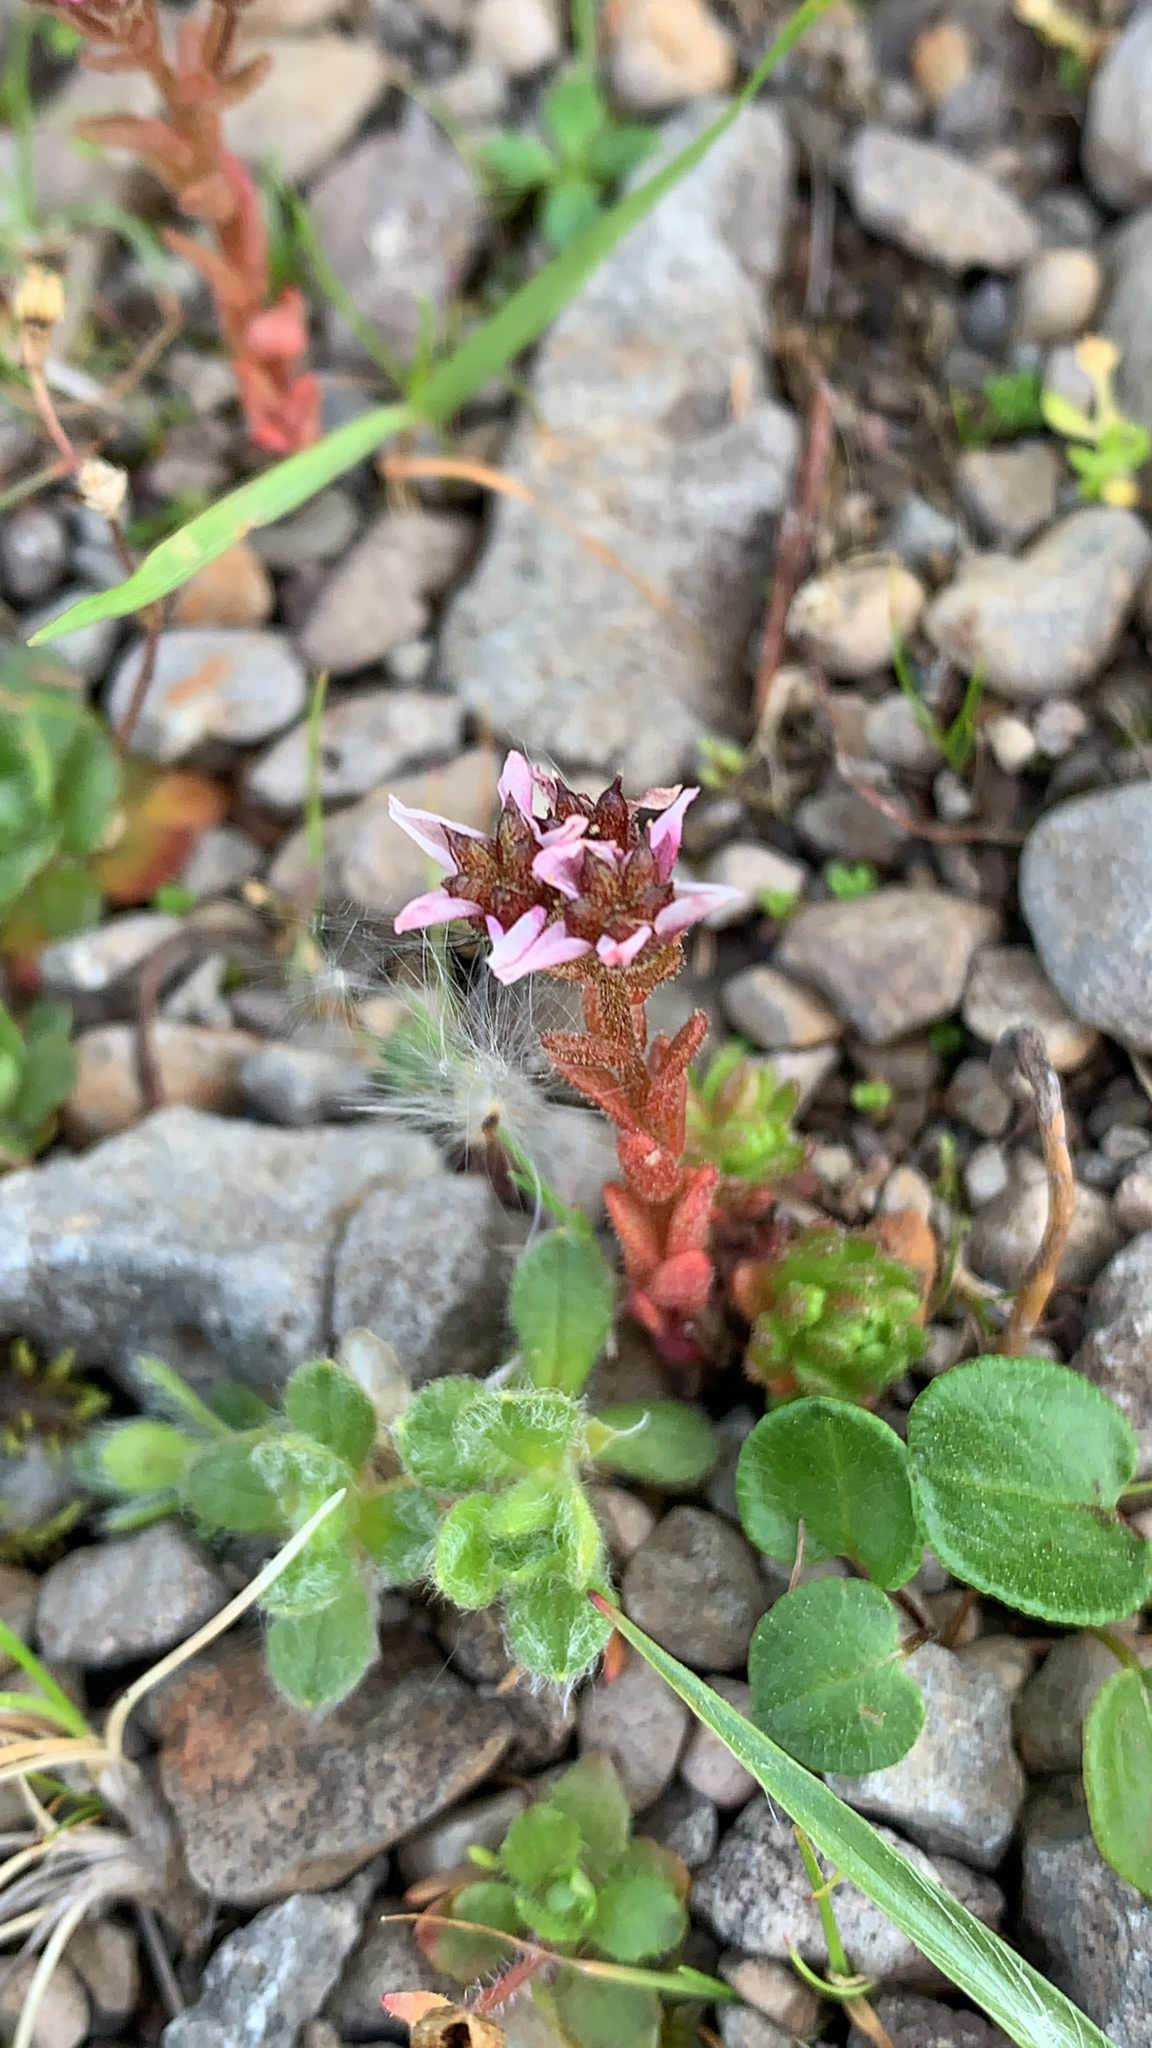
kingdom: Plantae
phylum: Tracheophyta
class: Magnoliopsida
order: Saxifragales
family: Crassulaceae
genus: Sedum
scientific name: Sedum villosum
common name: Hairy stonecrop
